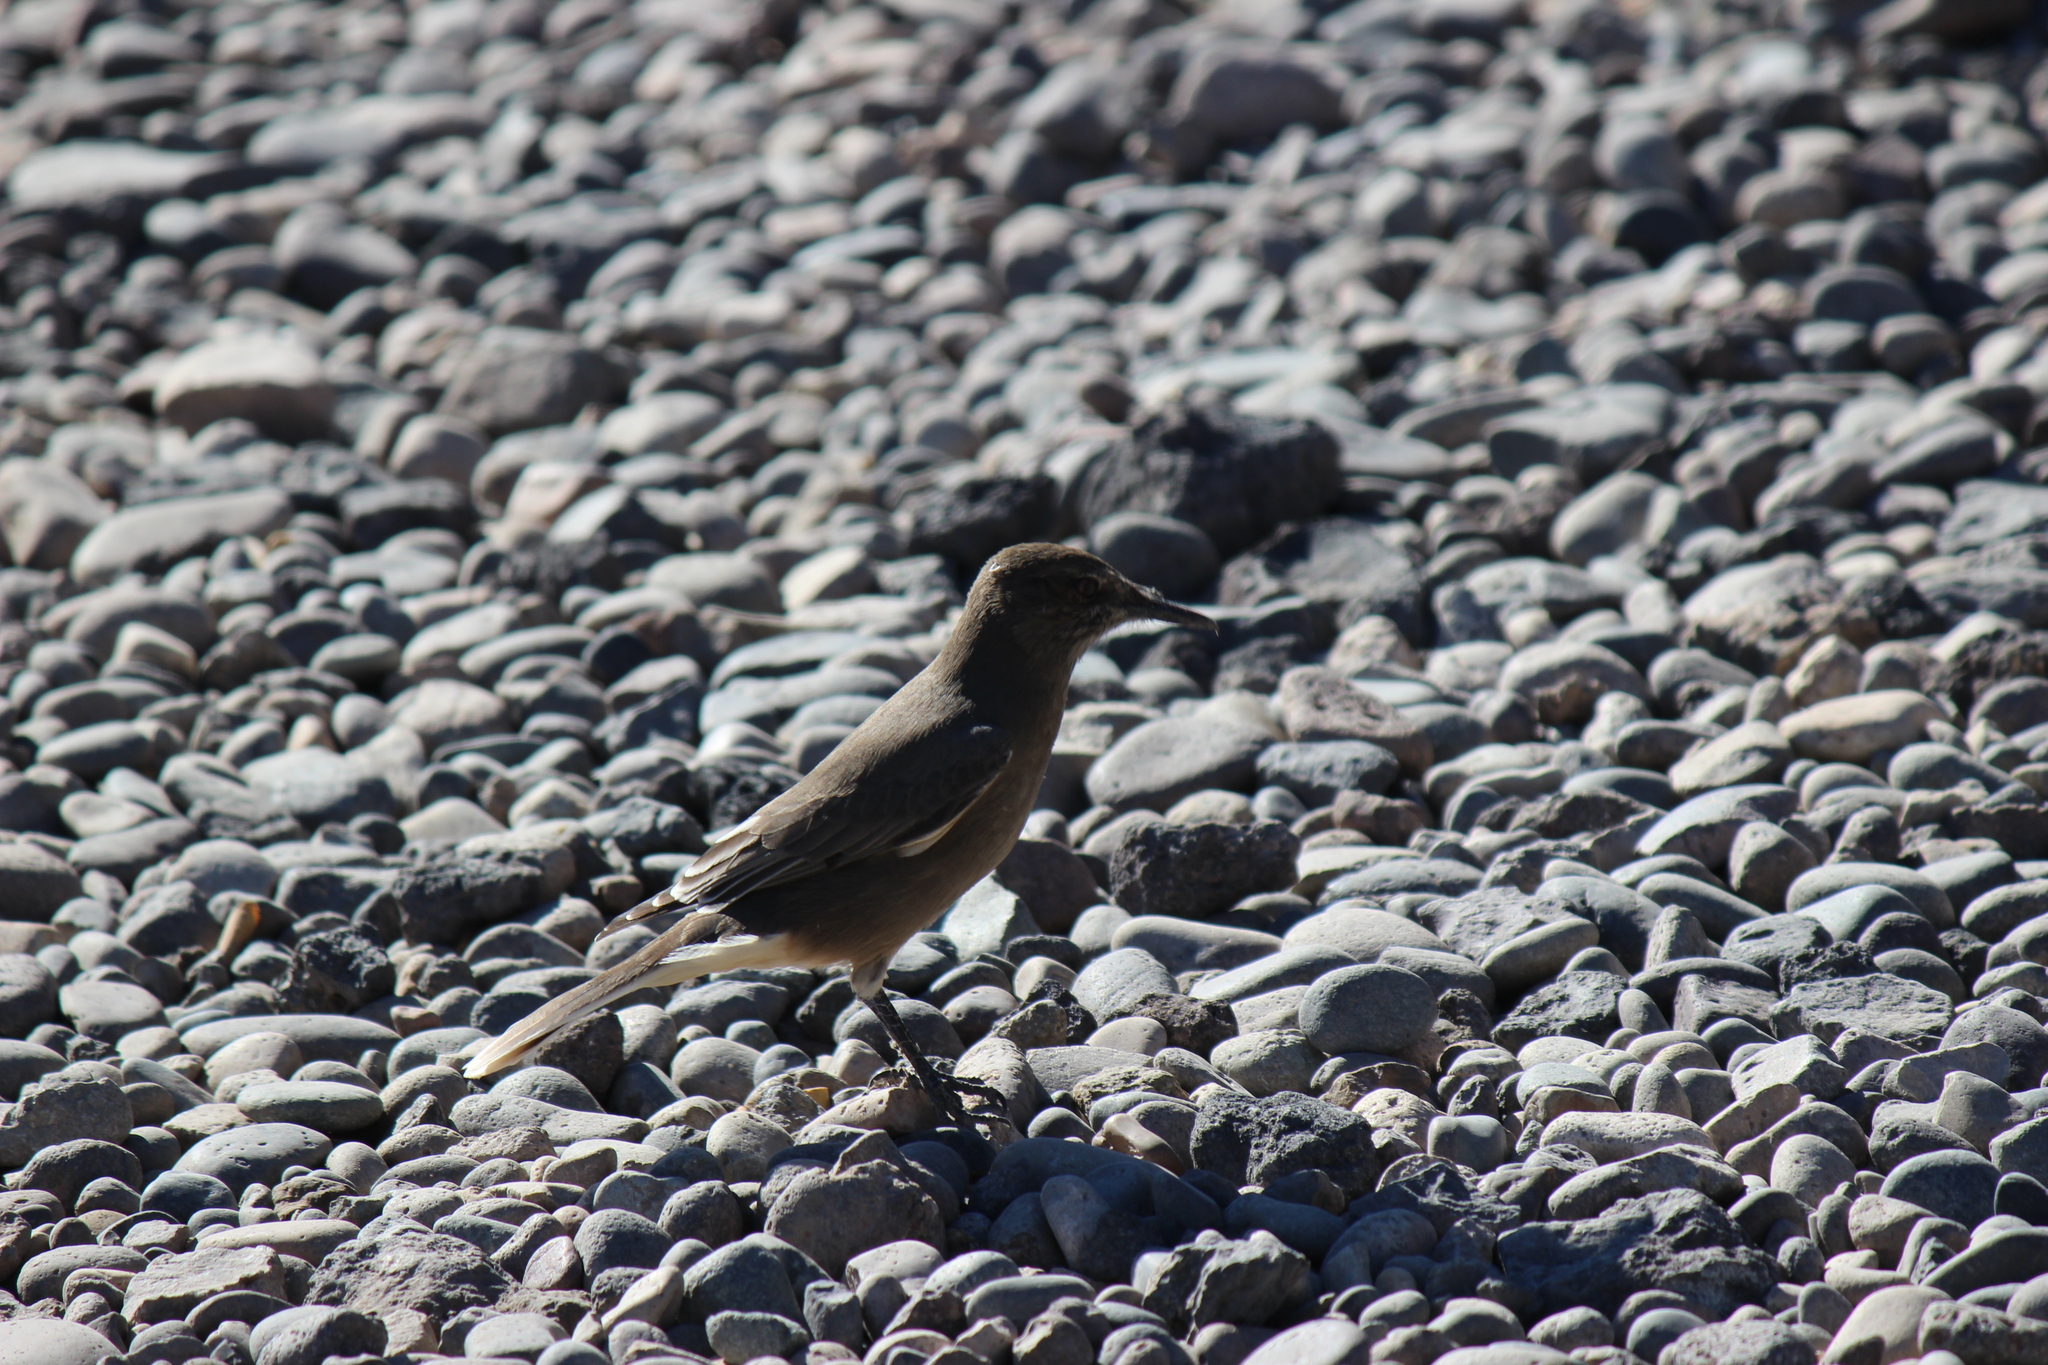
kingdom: Animalia
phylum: Chordata
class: Aves
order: Passeriformes
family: Tyrannidae
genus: Agriornis
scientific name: Agriornis montanus
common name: Black-billed shrike-tyrant
